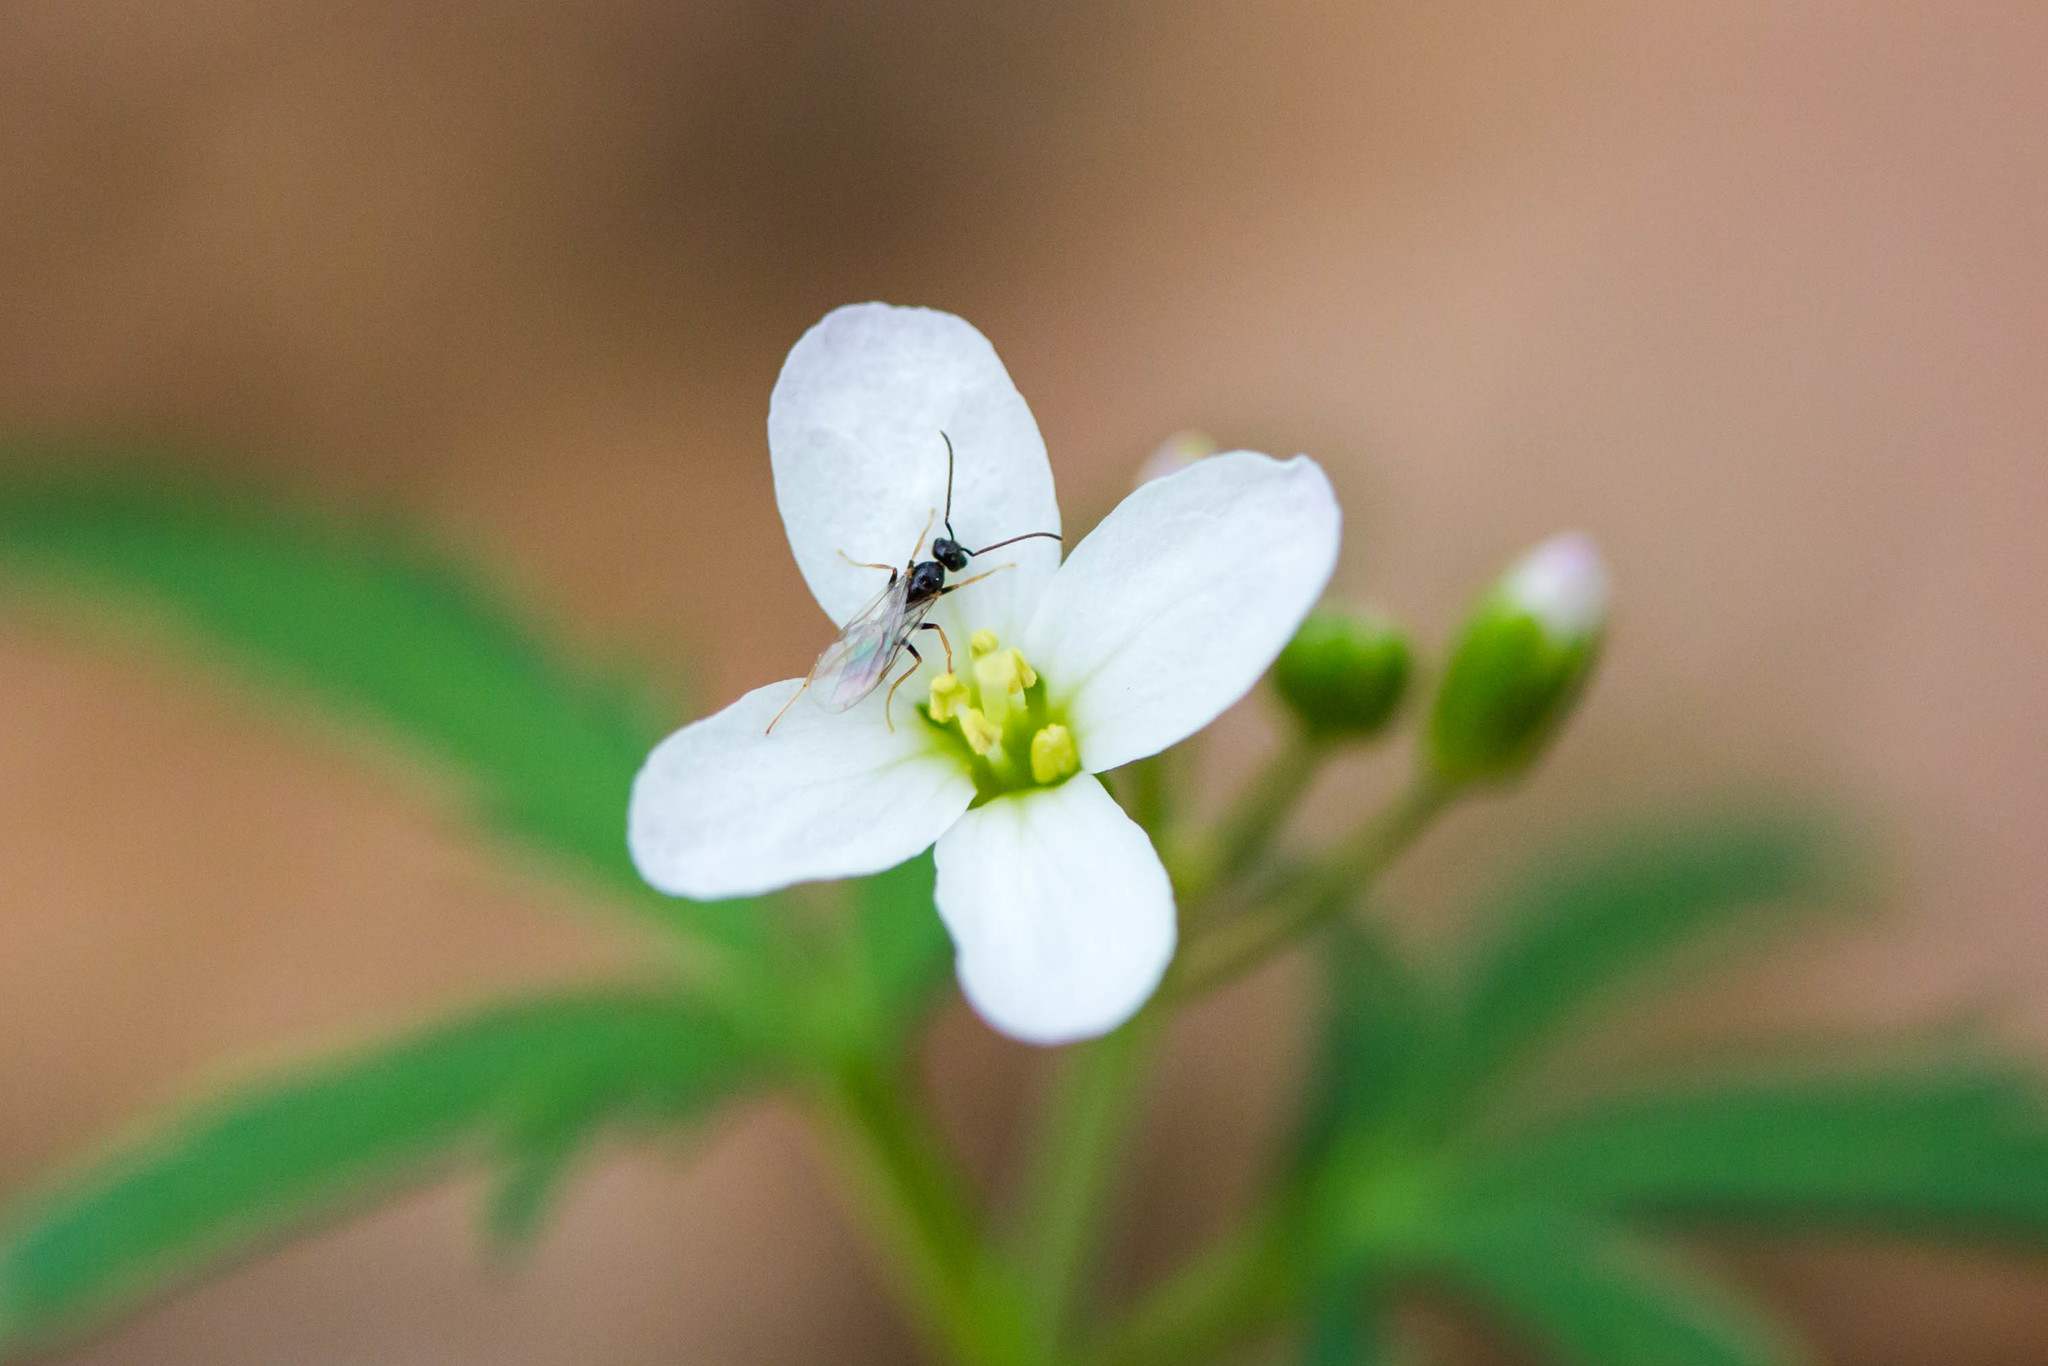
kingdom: Animalia
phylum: Arthropoda
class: Insecta
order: Hymenoptera
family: Formicidae
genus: Prenolepis
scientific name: Prenolepis imparis
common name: Small honey ant
